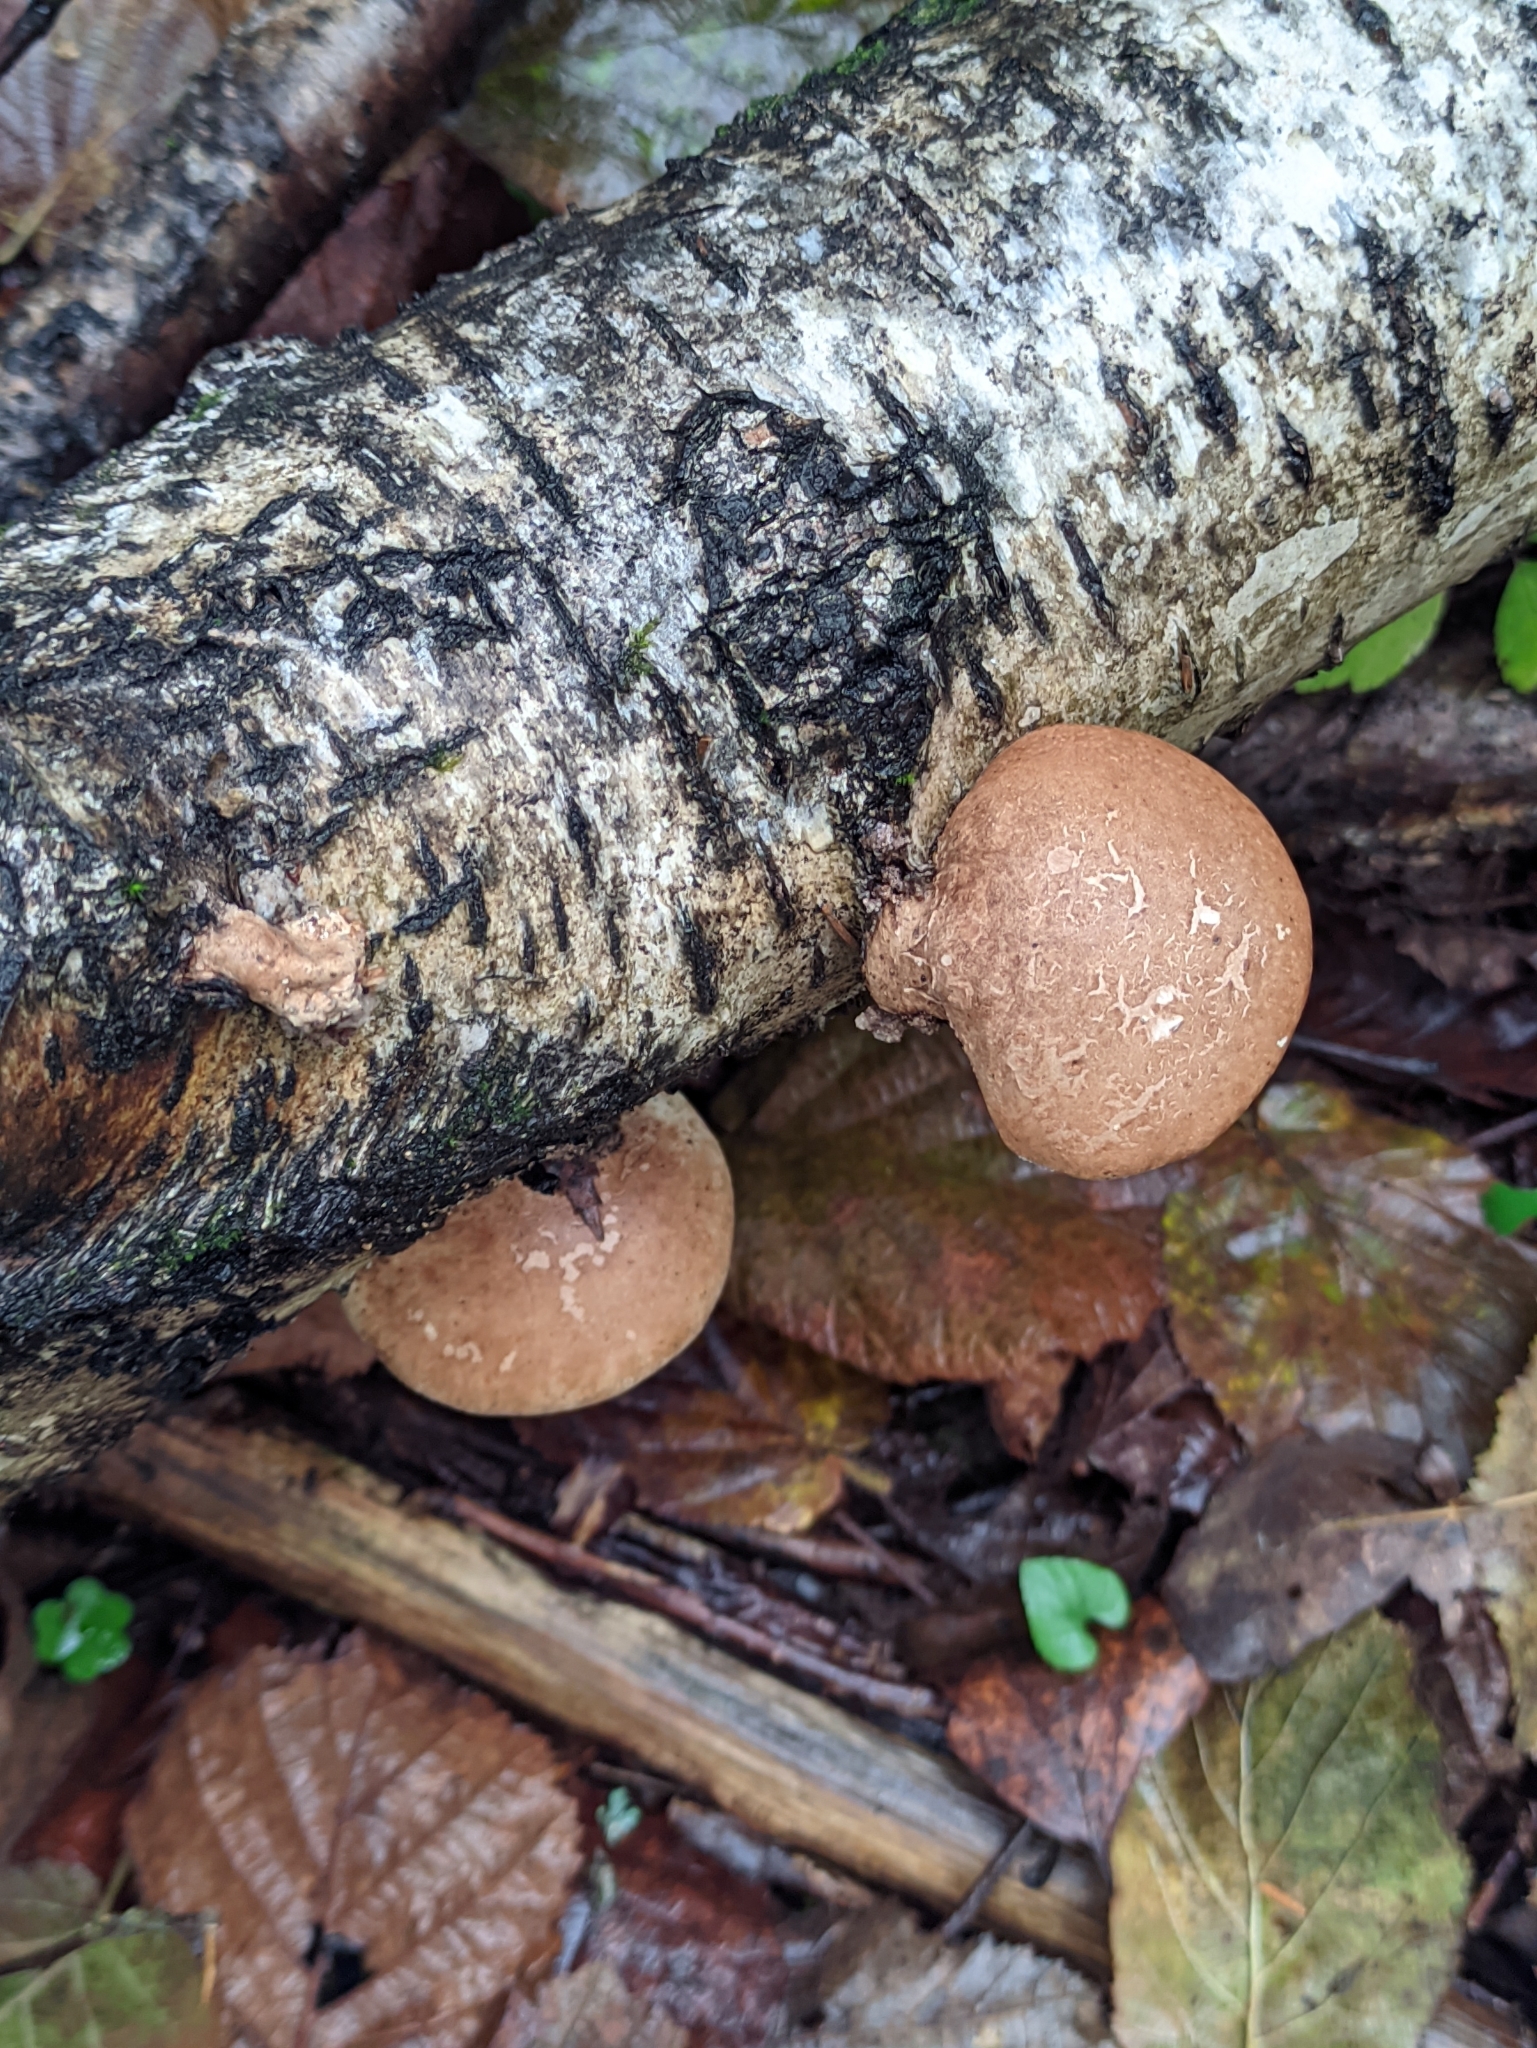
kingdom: Fungi
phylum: Basidiomycota
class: Agaricomycetes
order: Polyporales
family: Fomitopsidaceae
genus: Fomitopsis
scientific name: Fomitopsis betulina
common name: Birch polypore
